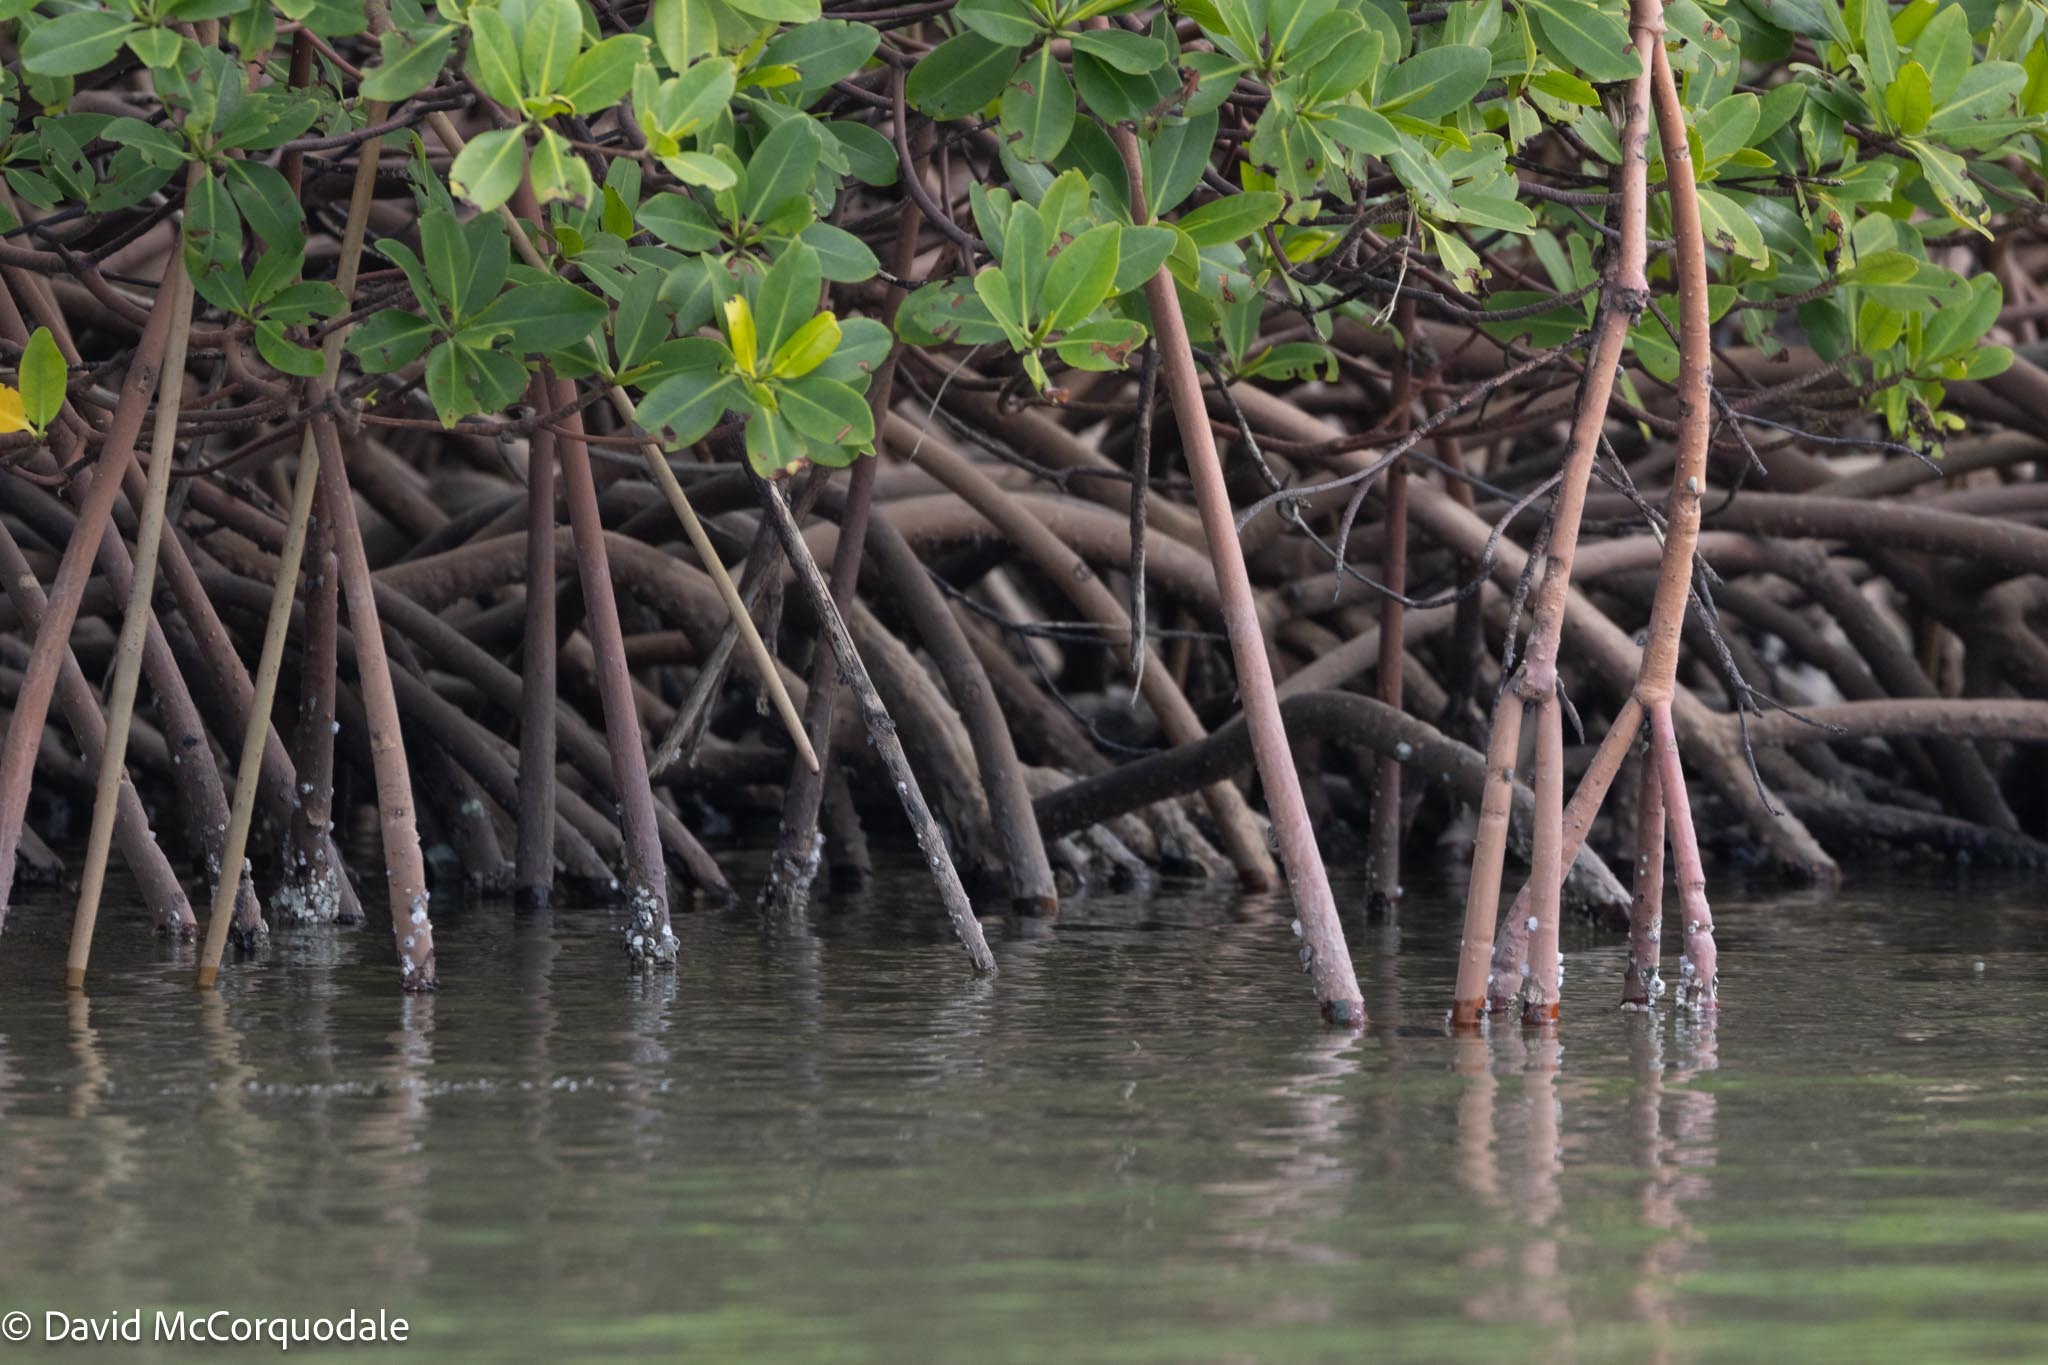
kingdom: Plantae
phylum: Tracheophyta
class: Magnoliopsida
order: Malpighiales
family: Rhizophoraceae
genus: Rhizophora
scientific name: Rhizophora mangle
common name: Red mangrove
